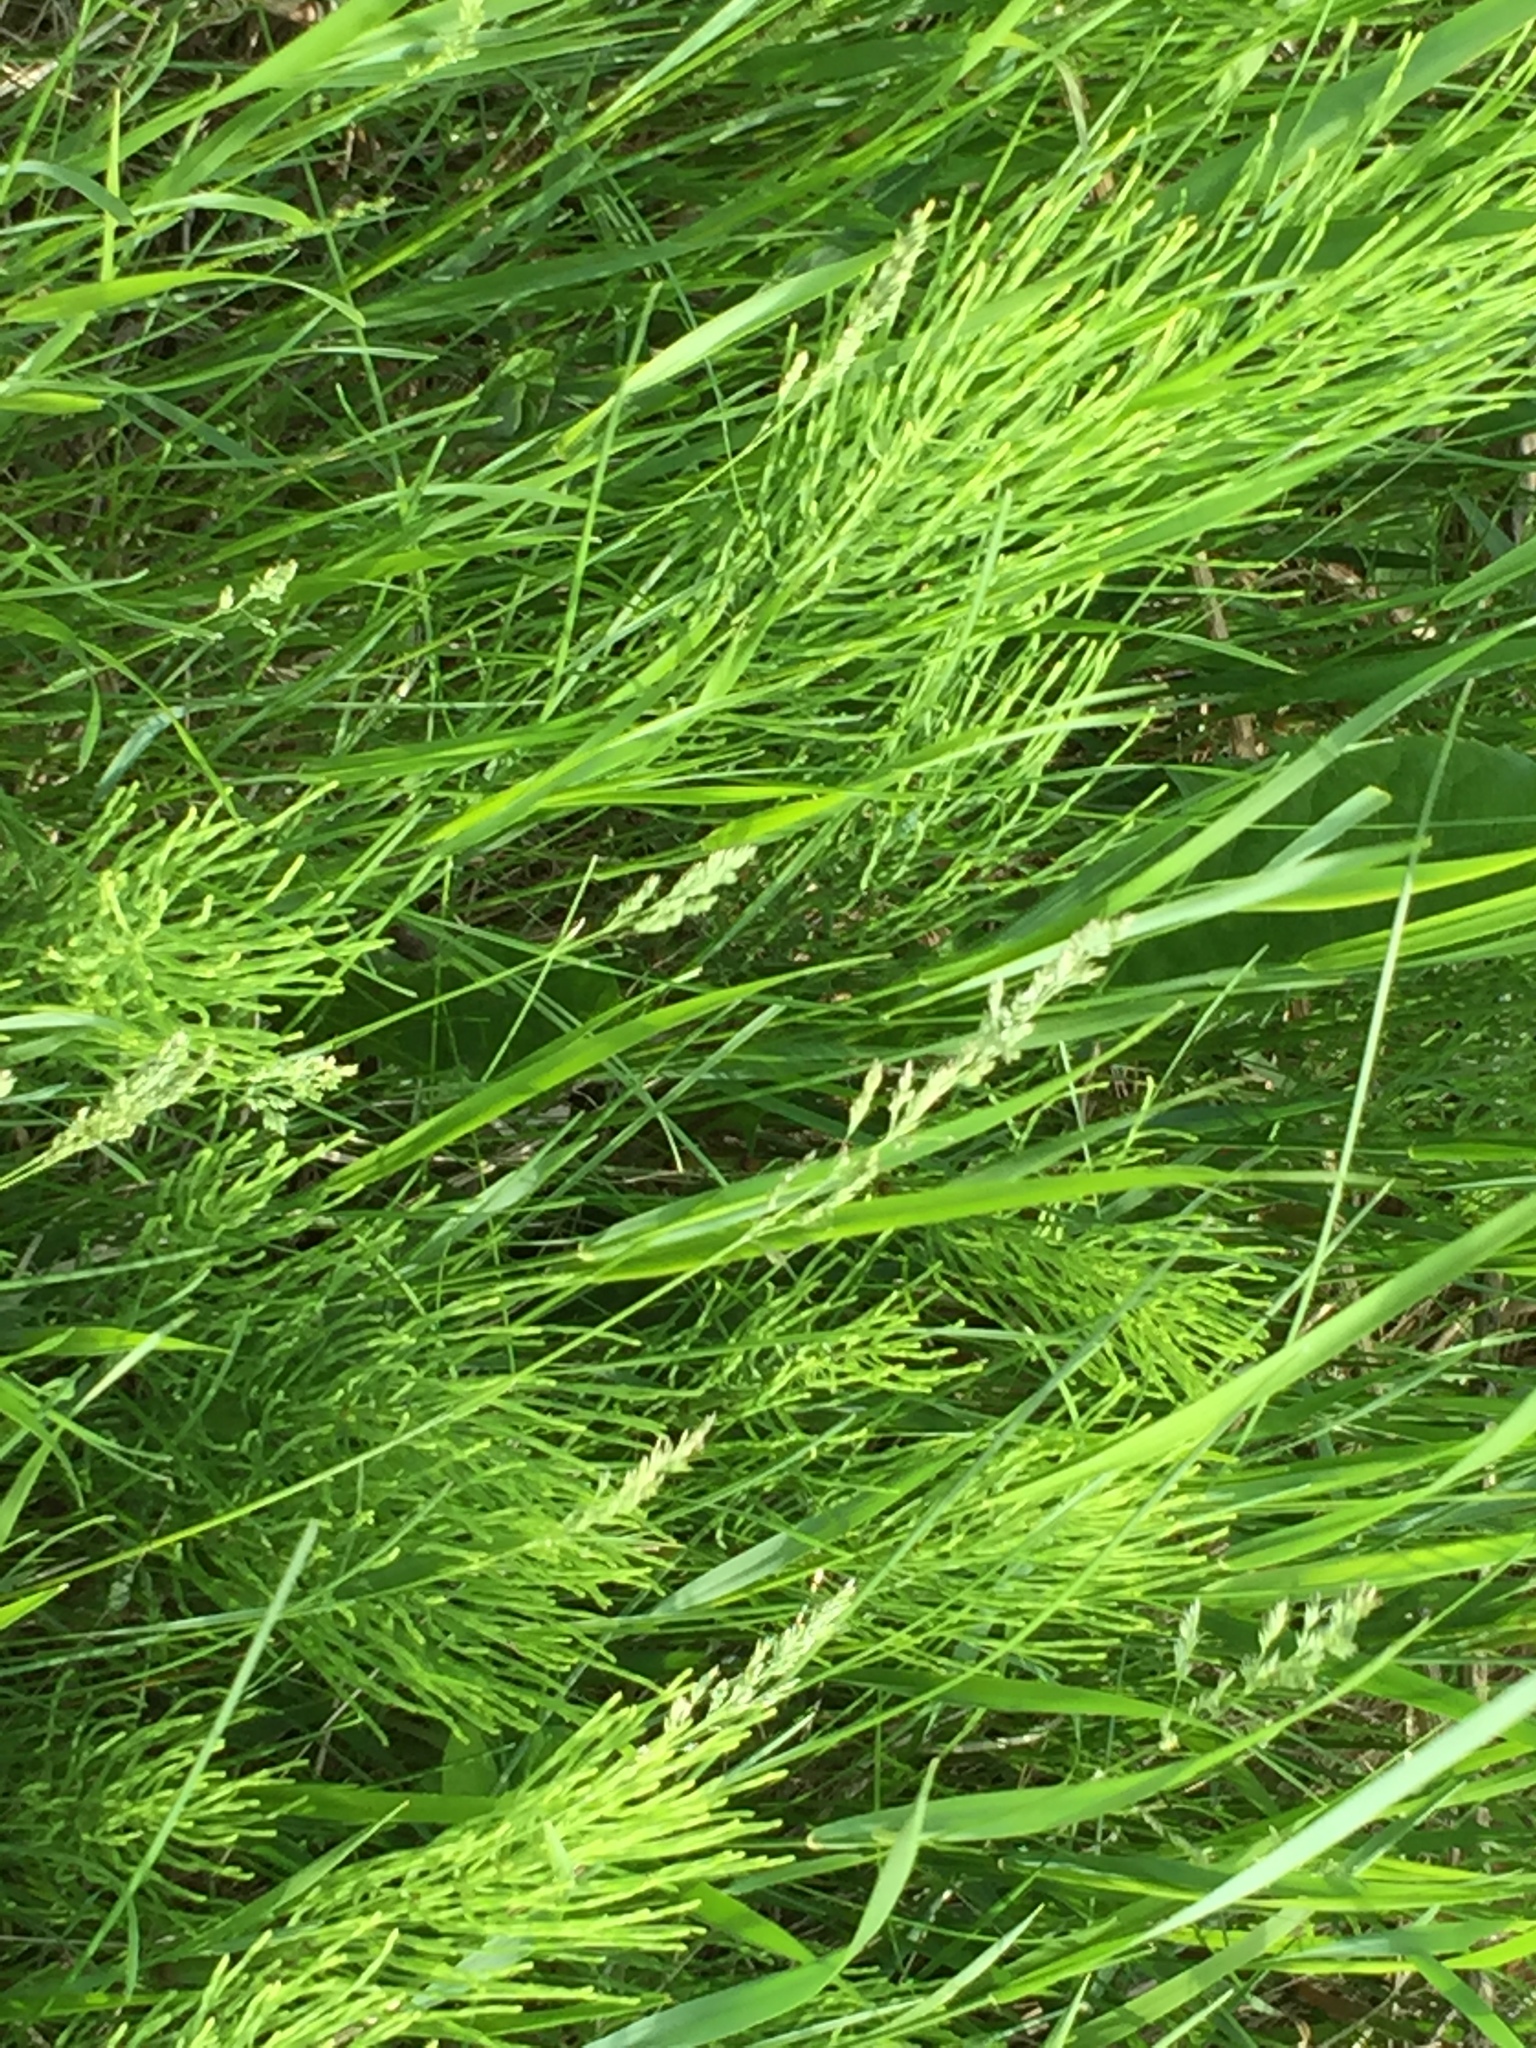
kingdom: Plantae
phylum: Tracheophyta
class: Polypodiopsida
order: Equisetales
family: Equisetaceae
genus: Equisetum
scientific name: Equisetum arvense
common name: Field horsetail
